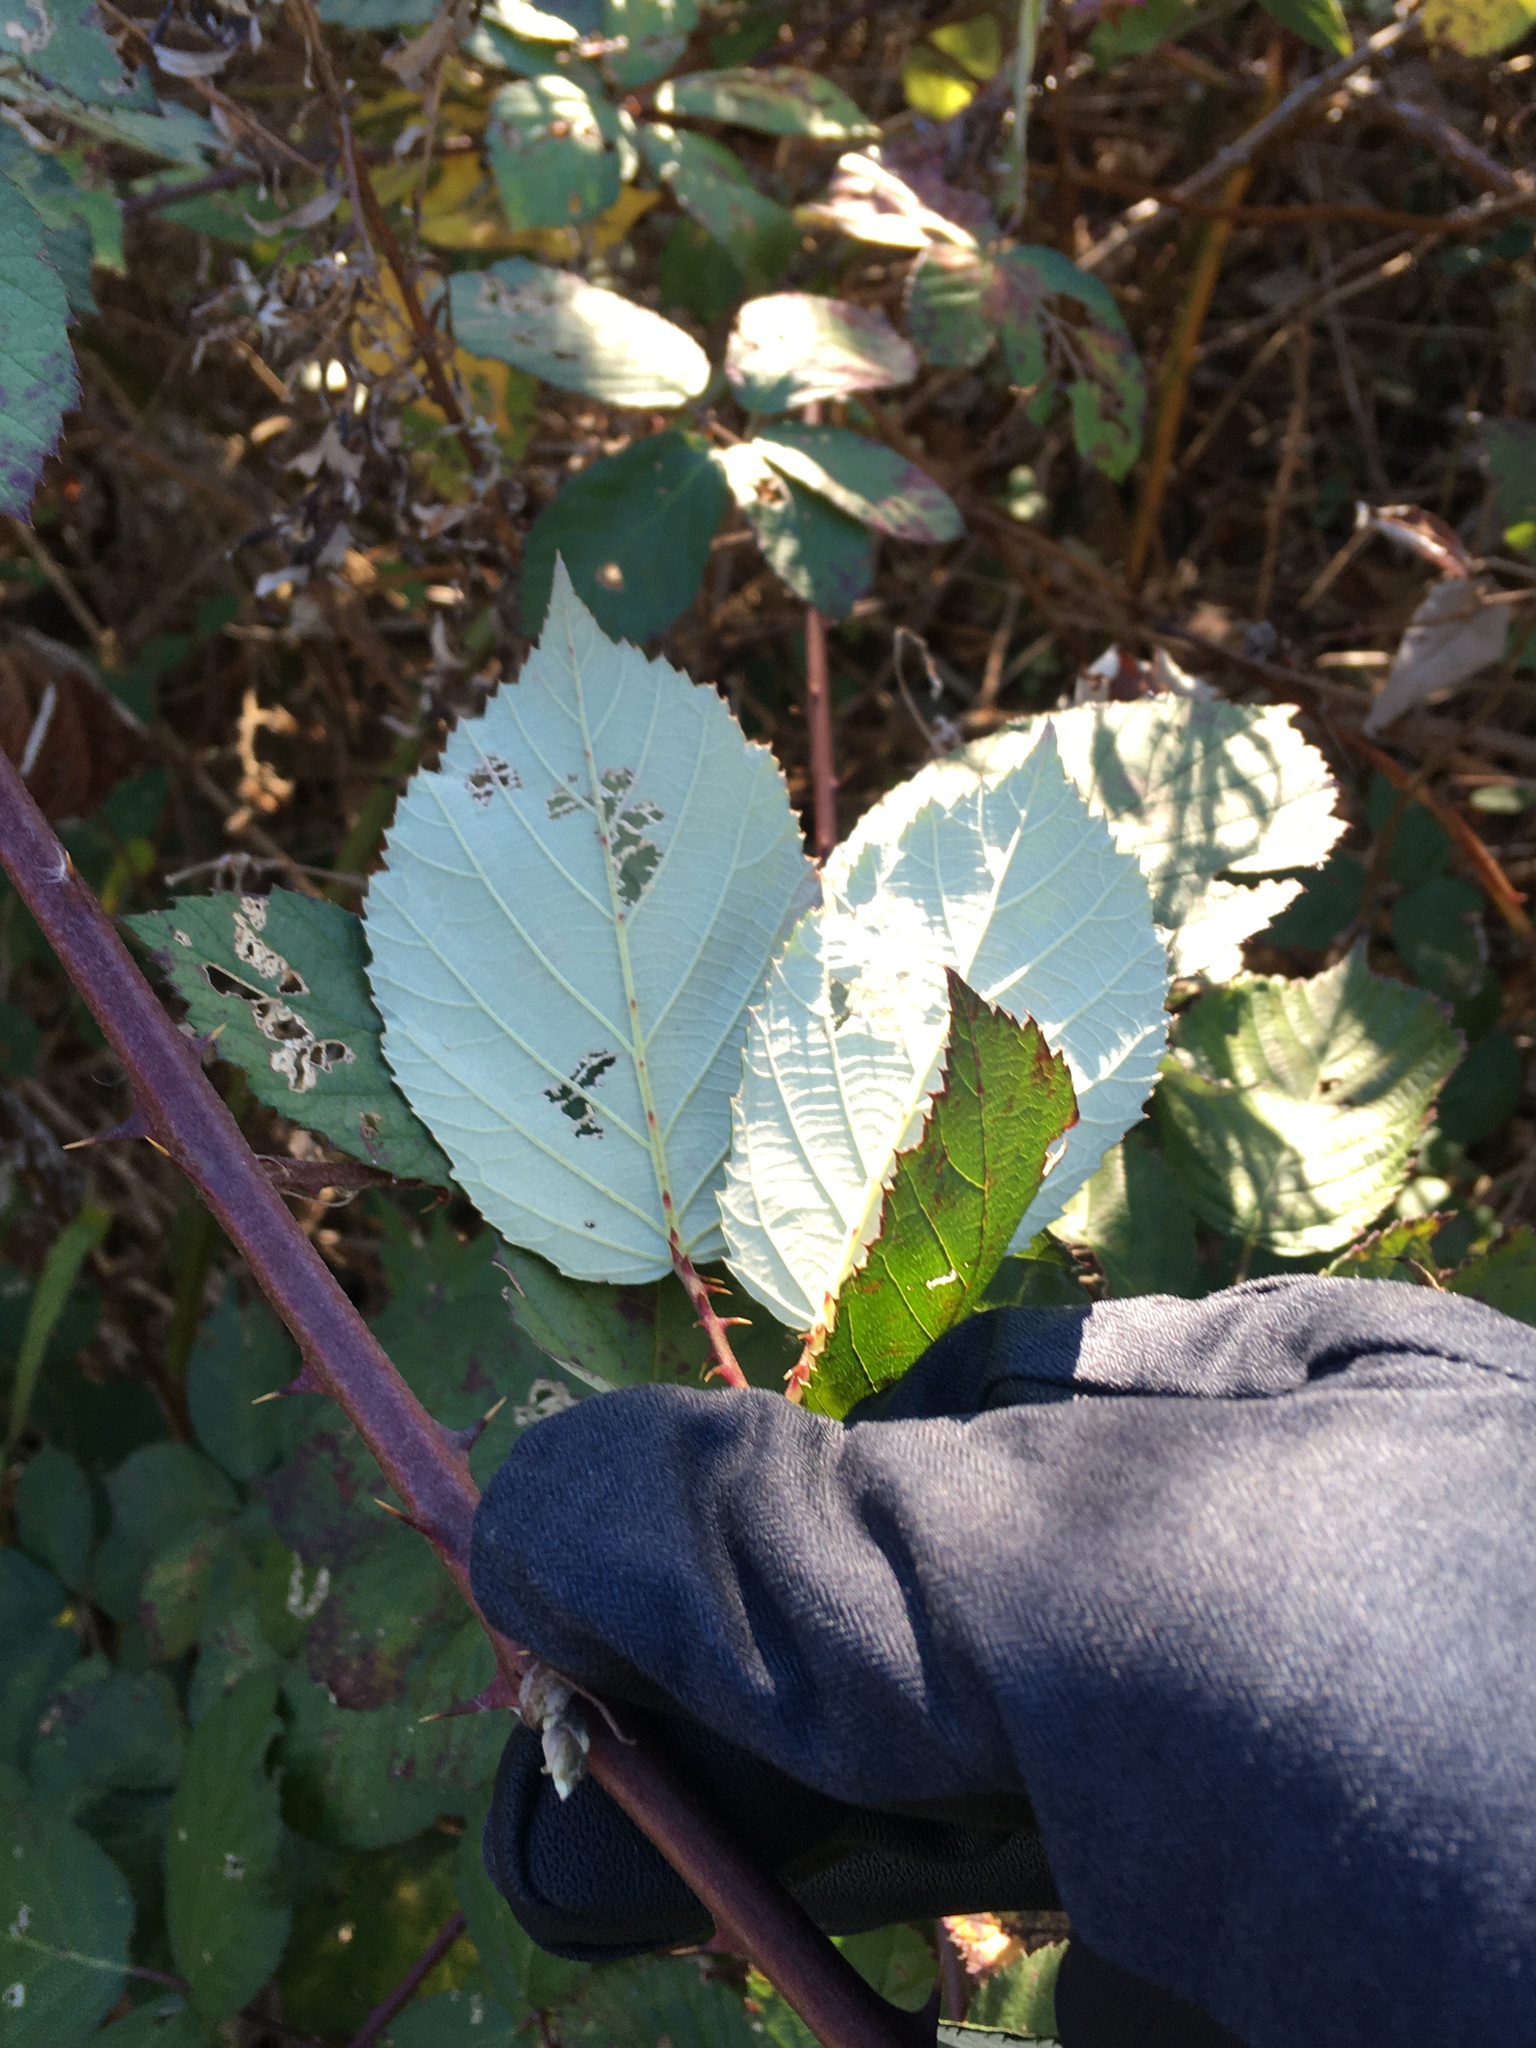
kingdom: Plantae
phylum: Tracheophyta
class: Magnoliopsida
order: Rosales
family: Rosaceae
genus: Rubus
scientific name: Rubus bifrons
